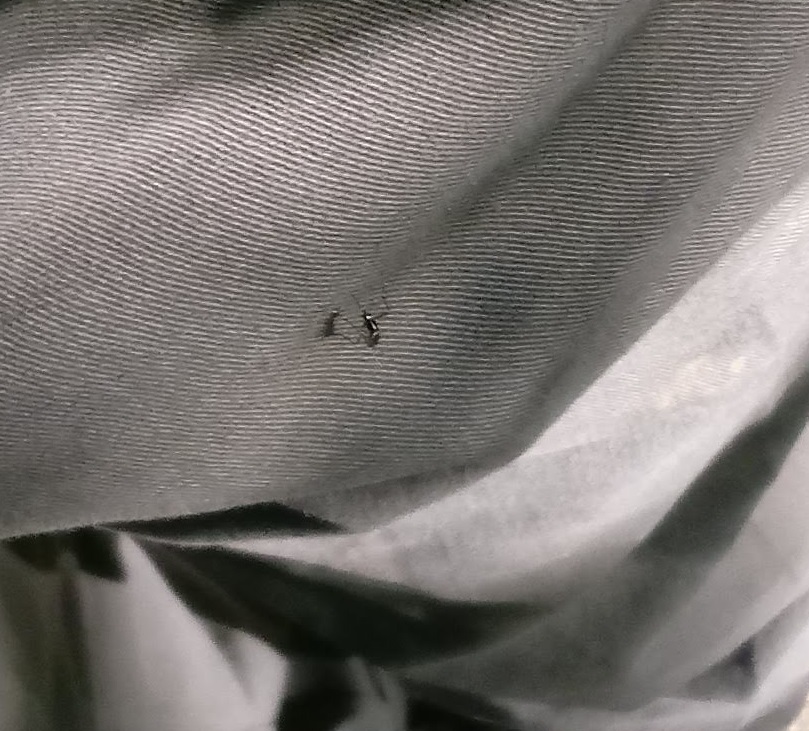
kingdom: Animalia
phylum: Arthropoda
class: Insecta
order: Diptera
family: Culicidae
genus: Aedes
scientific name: Aedes albopictus
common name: Tiger mosquito
